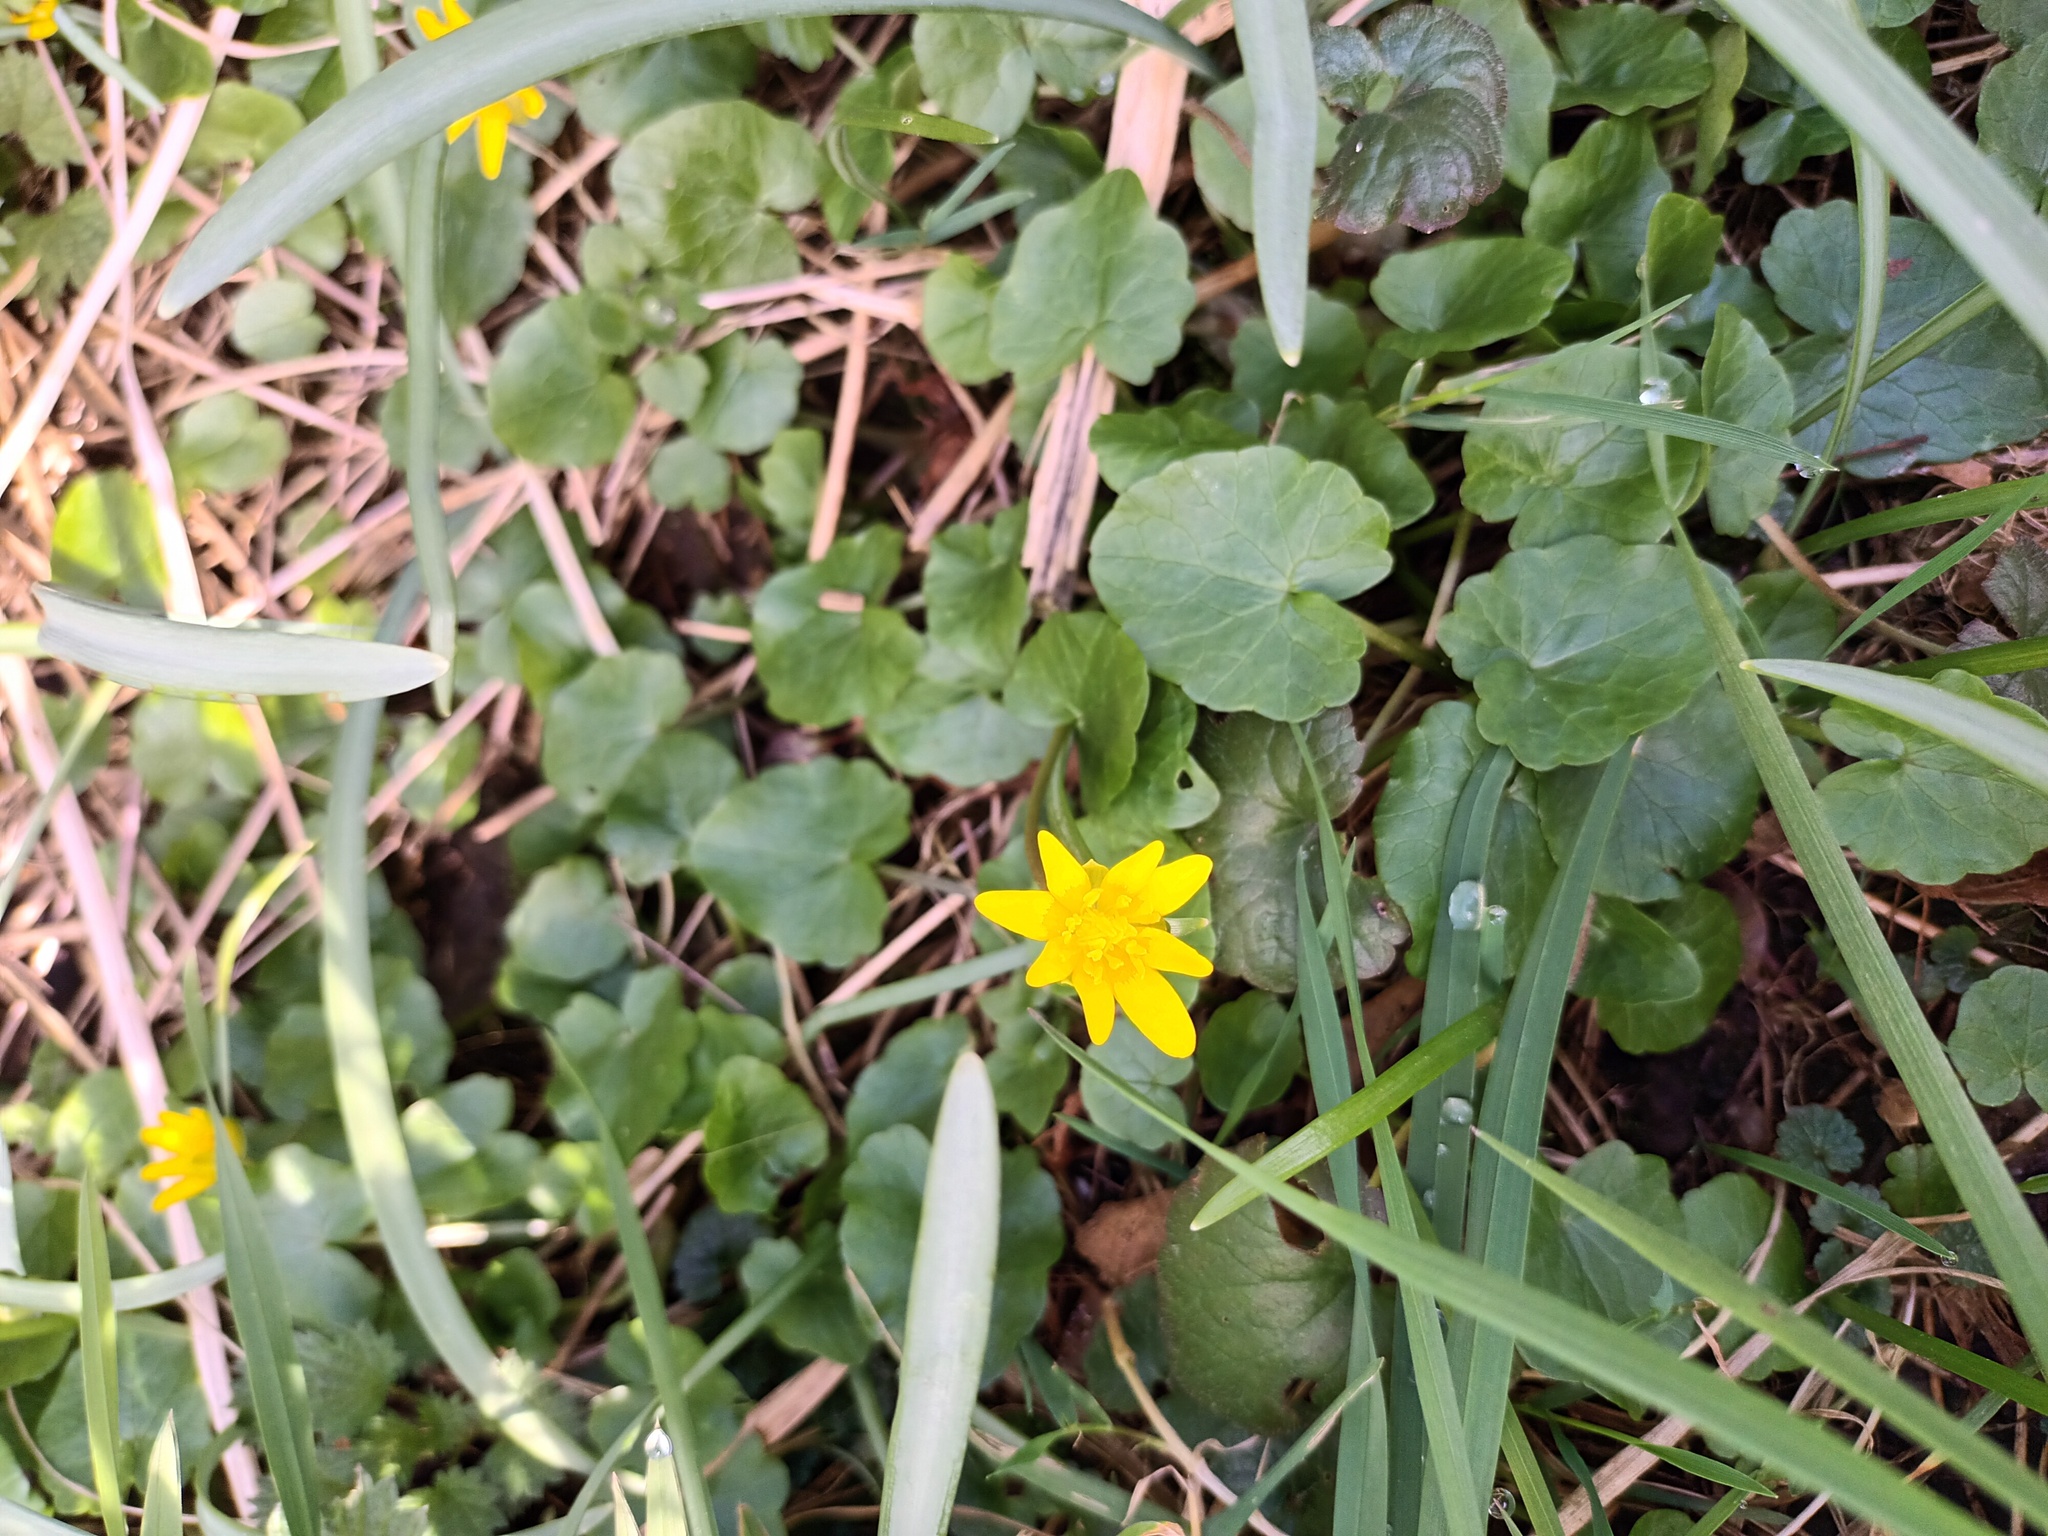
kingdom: Plantae
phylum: Tracheophyta
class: Magnoliopsida
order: Ranunculales
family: Ranunculaceae
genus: Ficaria
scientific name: Ficaria verna
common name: Lesser celandine
